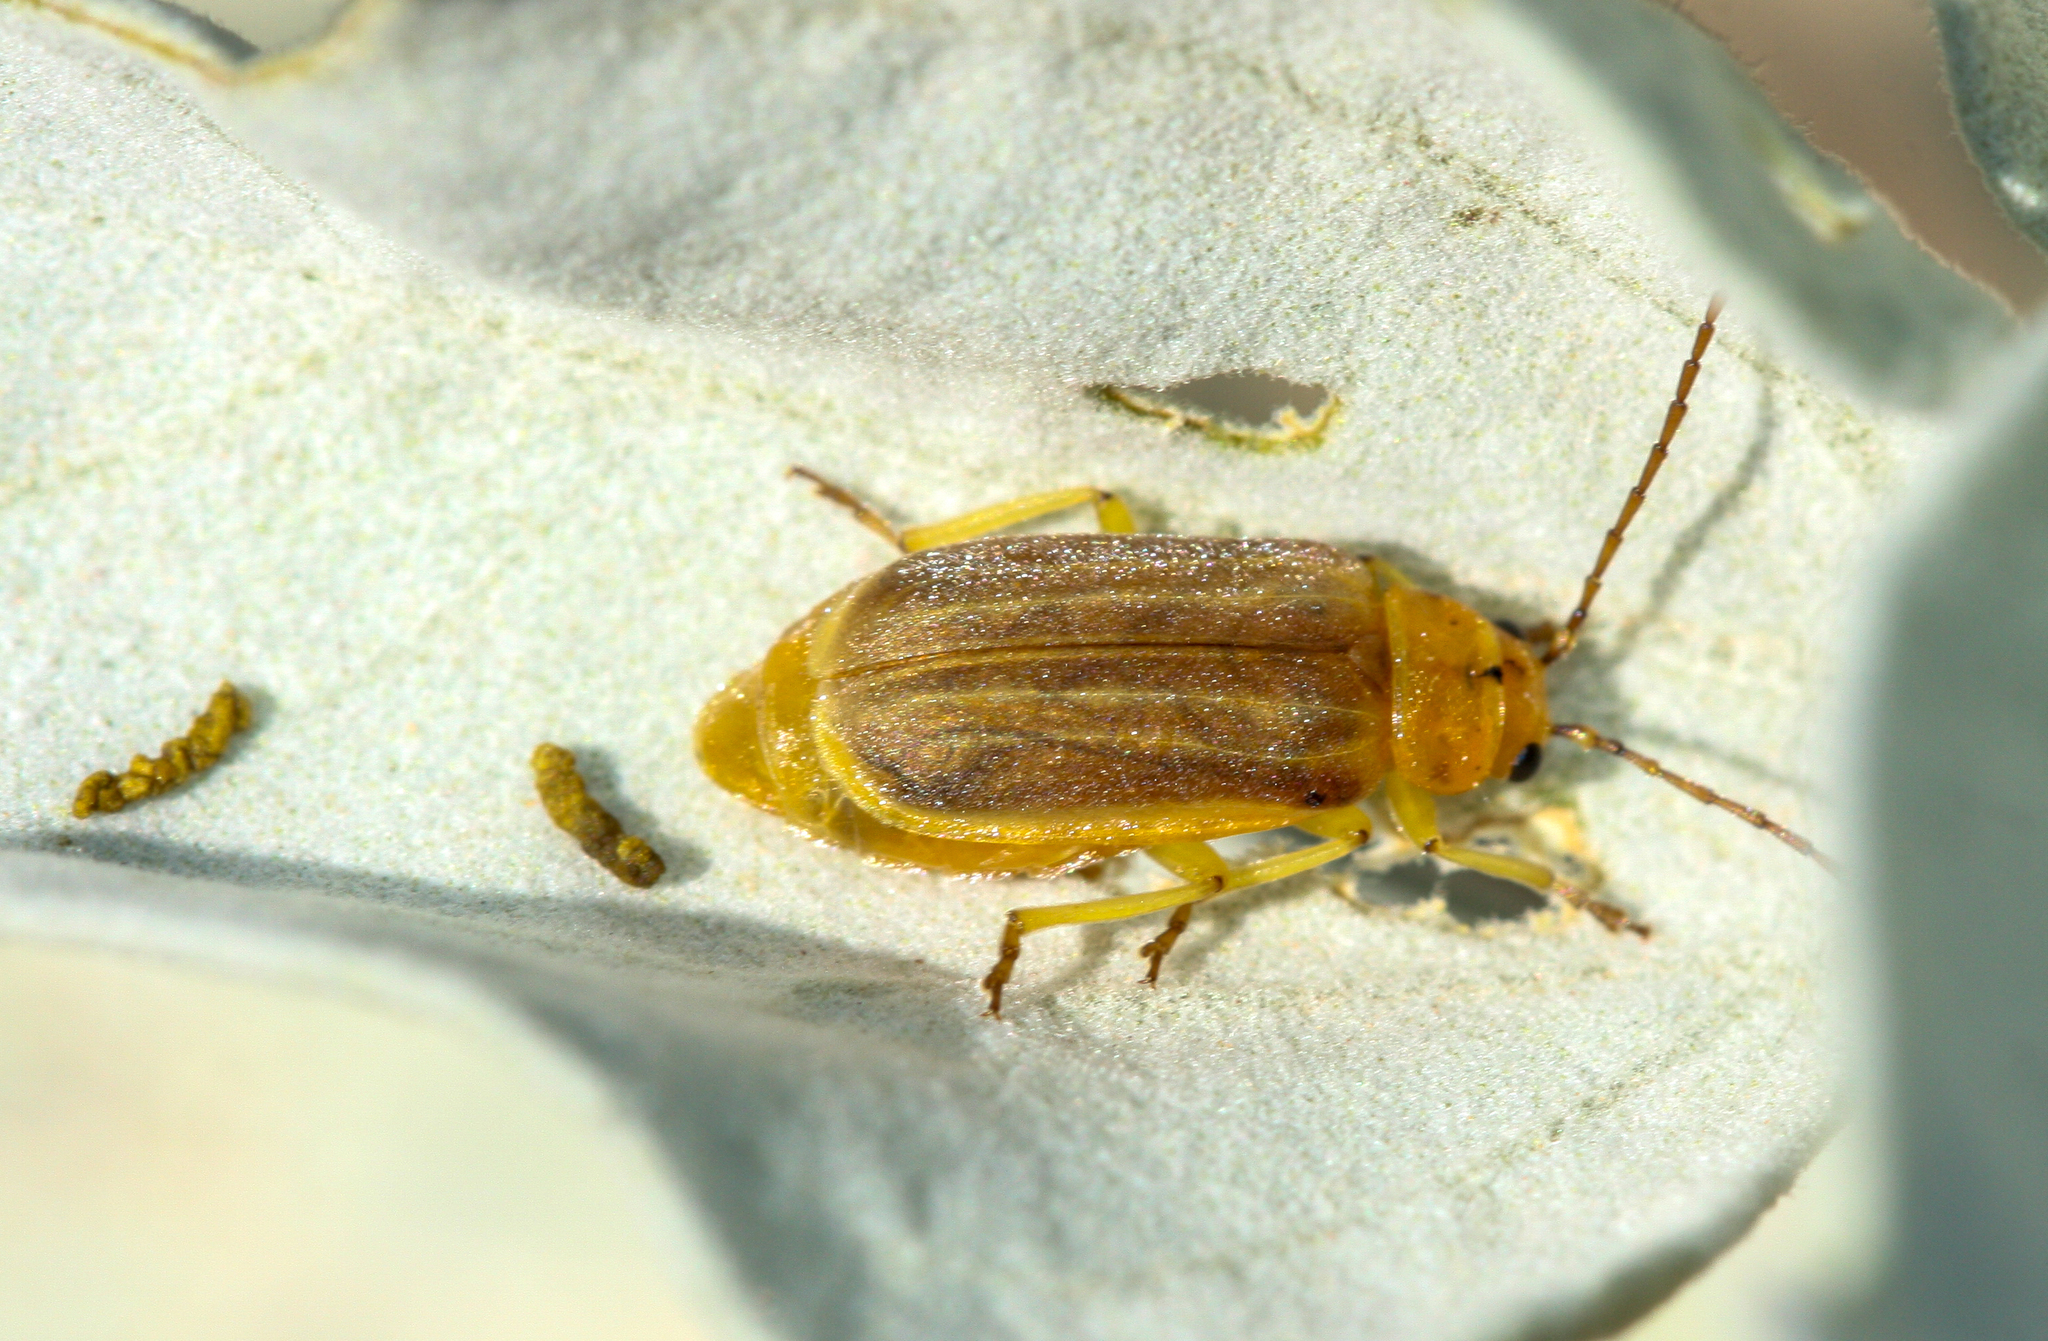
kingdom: Animalia
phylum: Arthropoda
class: Insecta
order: Coleoptera
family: Chrysomelidae
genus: Trirhabda
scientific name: Trirhabda geminata
